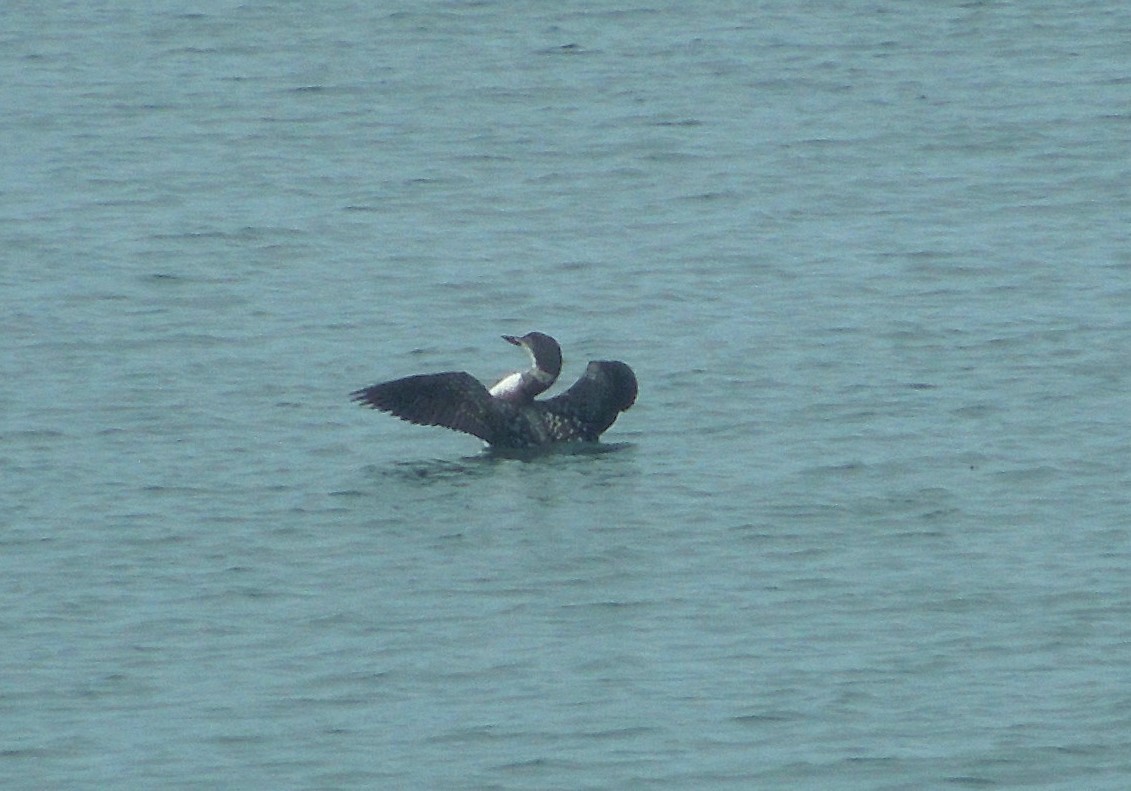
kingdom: Animalia
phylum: Chordata
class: Aves
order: Gaviiformes
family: Gaviidae
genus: Gavia
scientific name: Gavia immer
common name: Common loon
